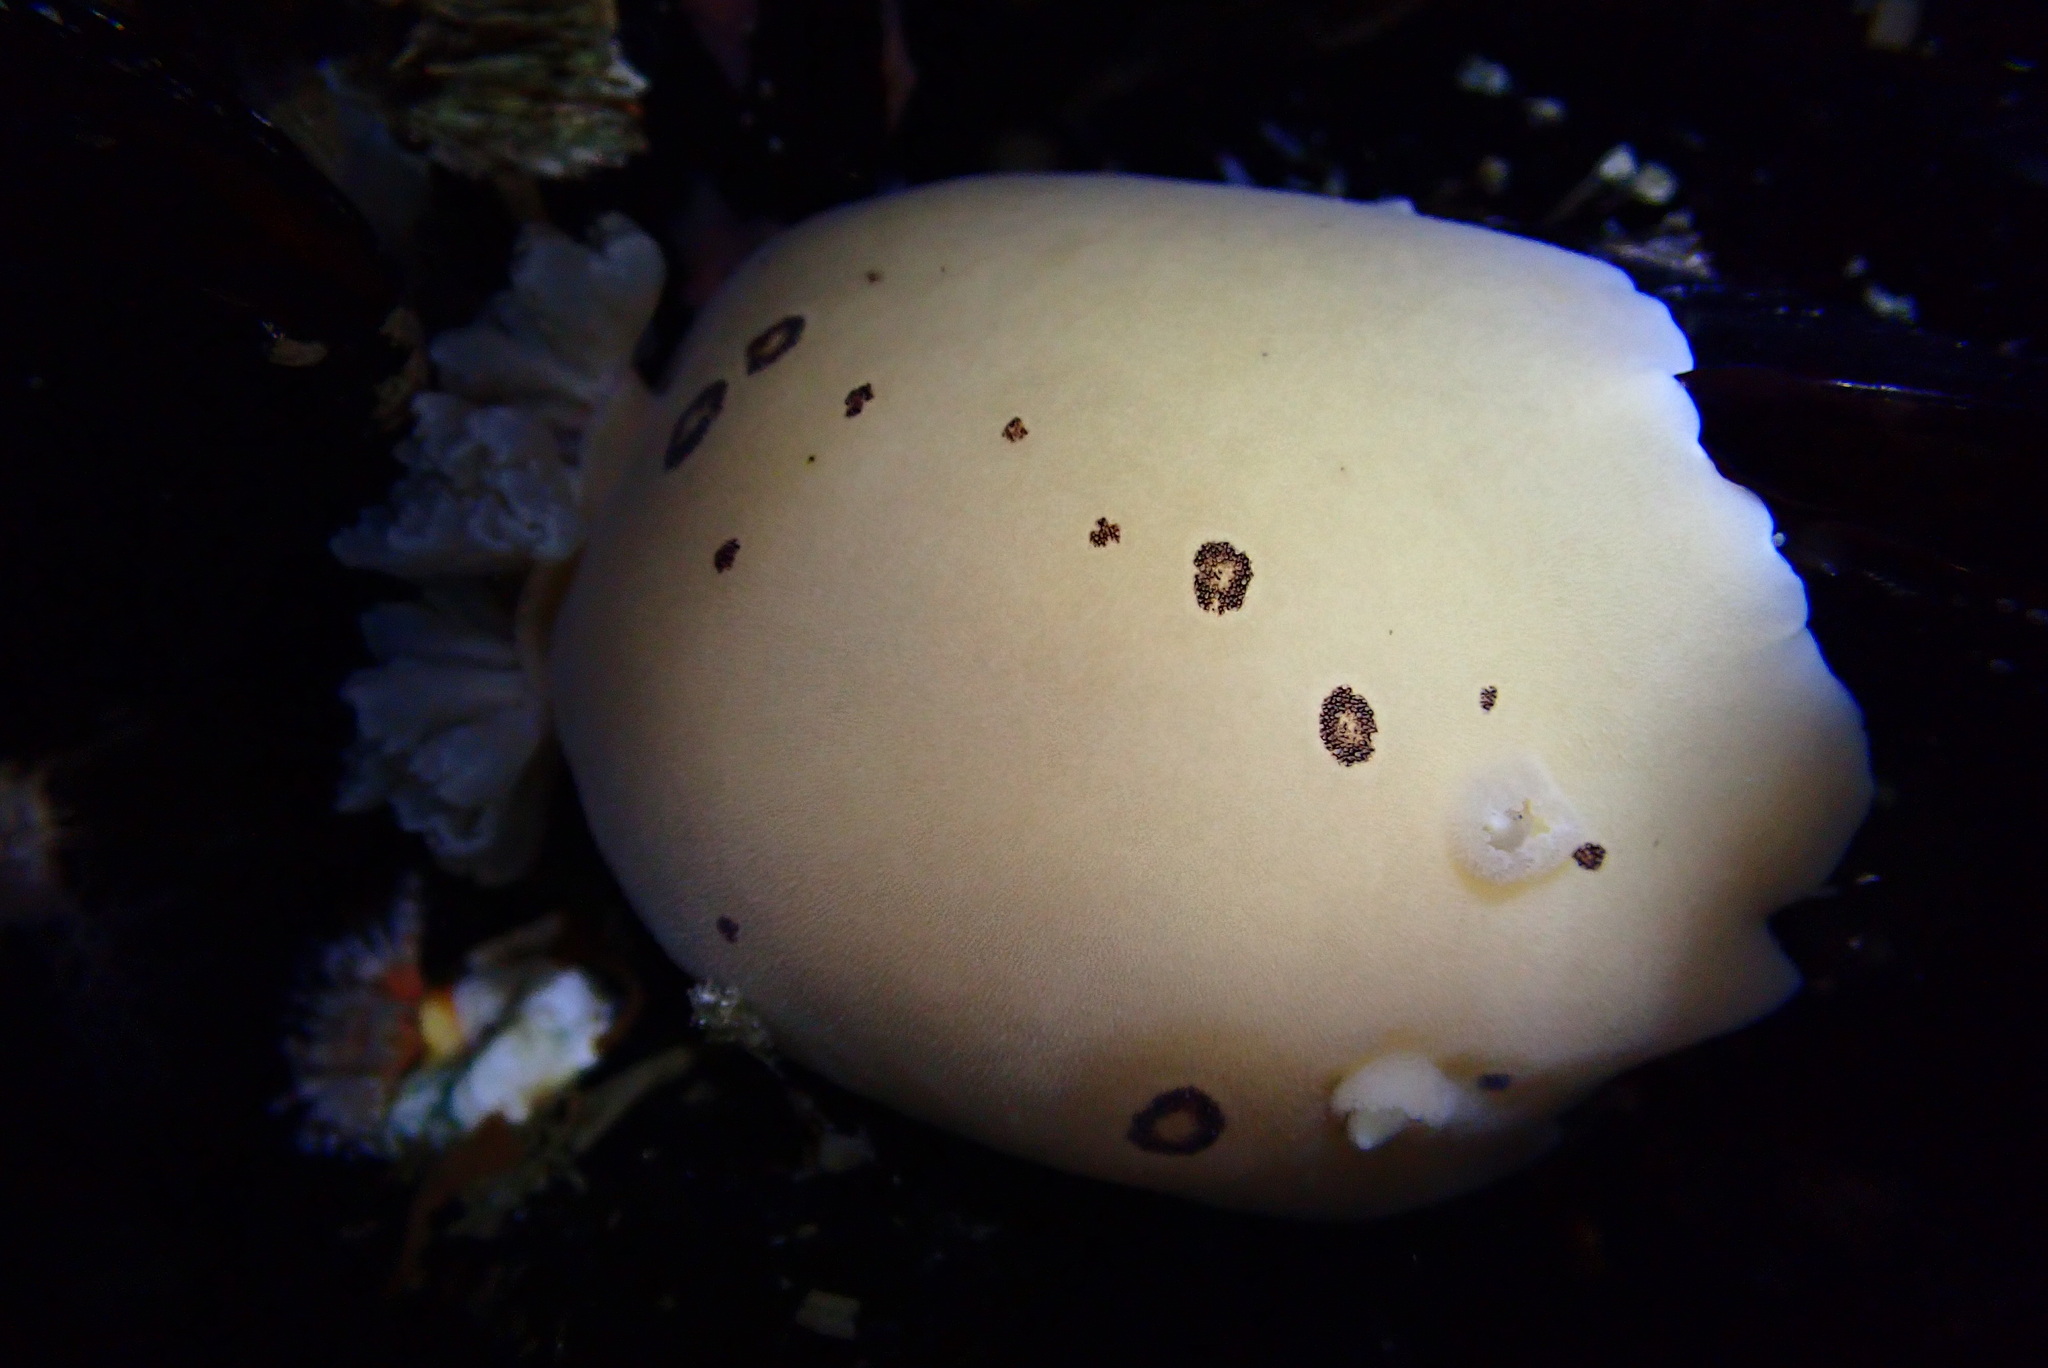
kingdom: Animalia
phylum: Mollusca
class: Gastropoda
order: Nudibranchia
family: Discodorididae
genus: Diaulula
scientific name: Diaulula sandiegensis
